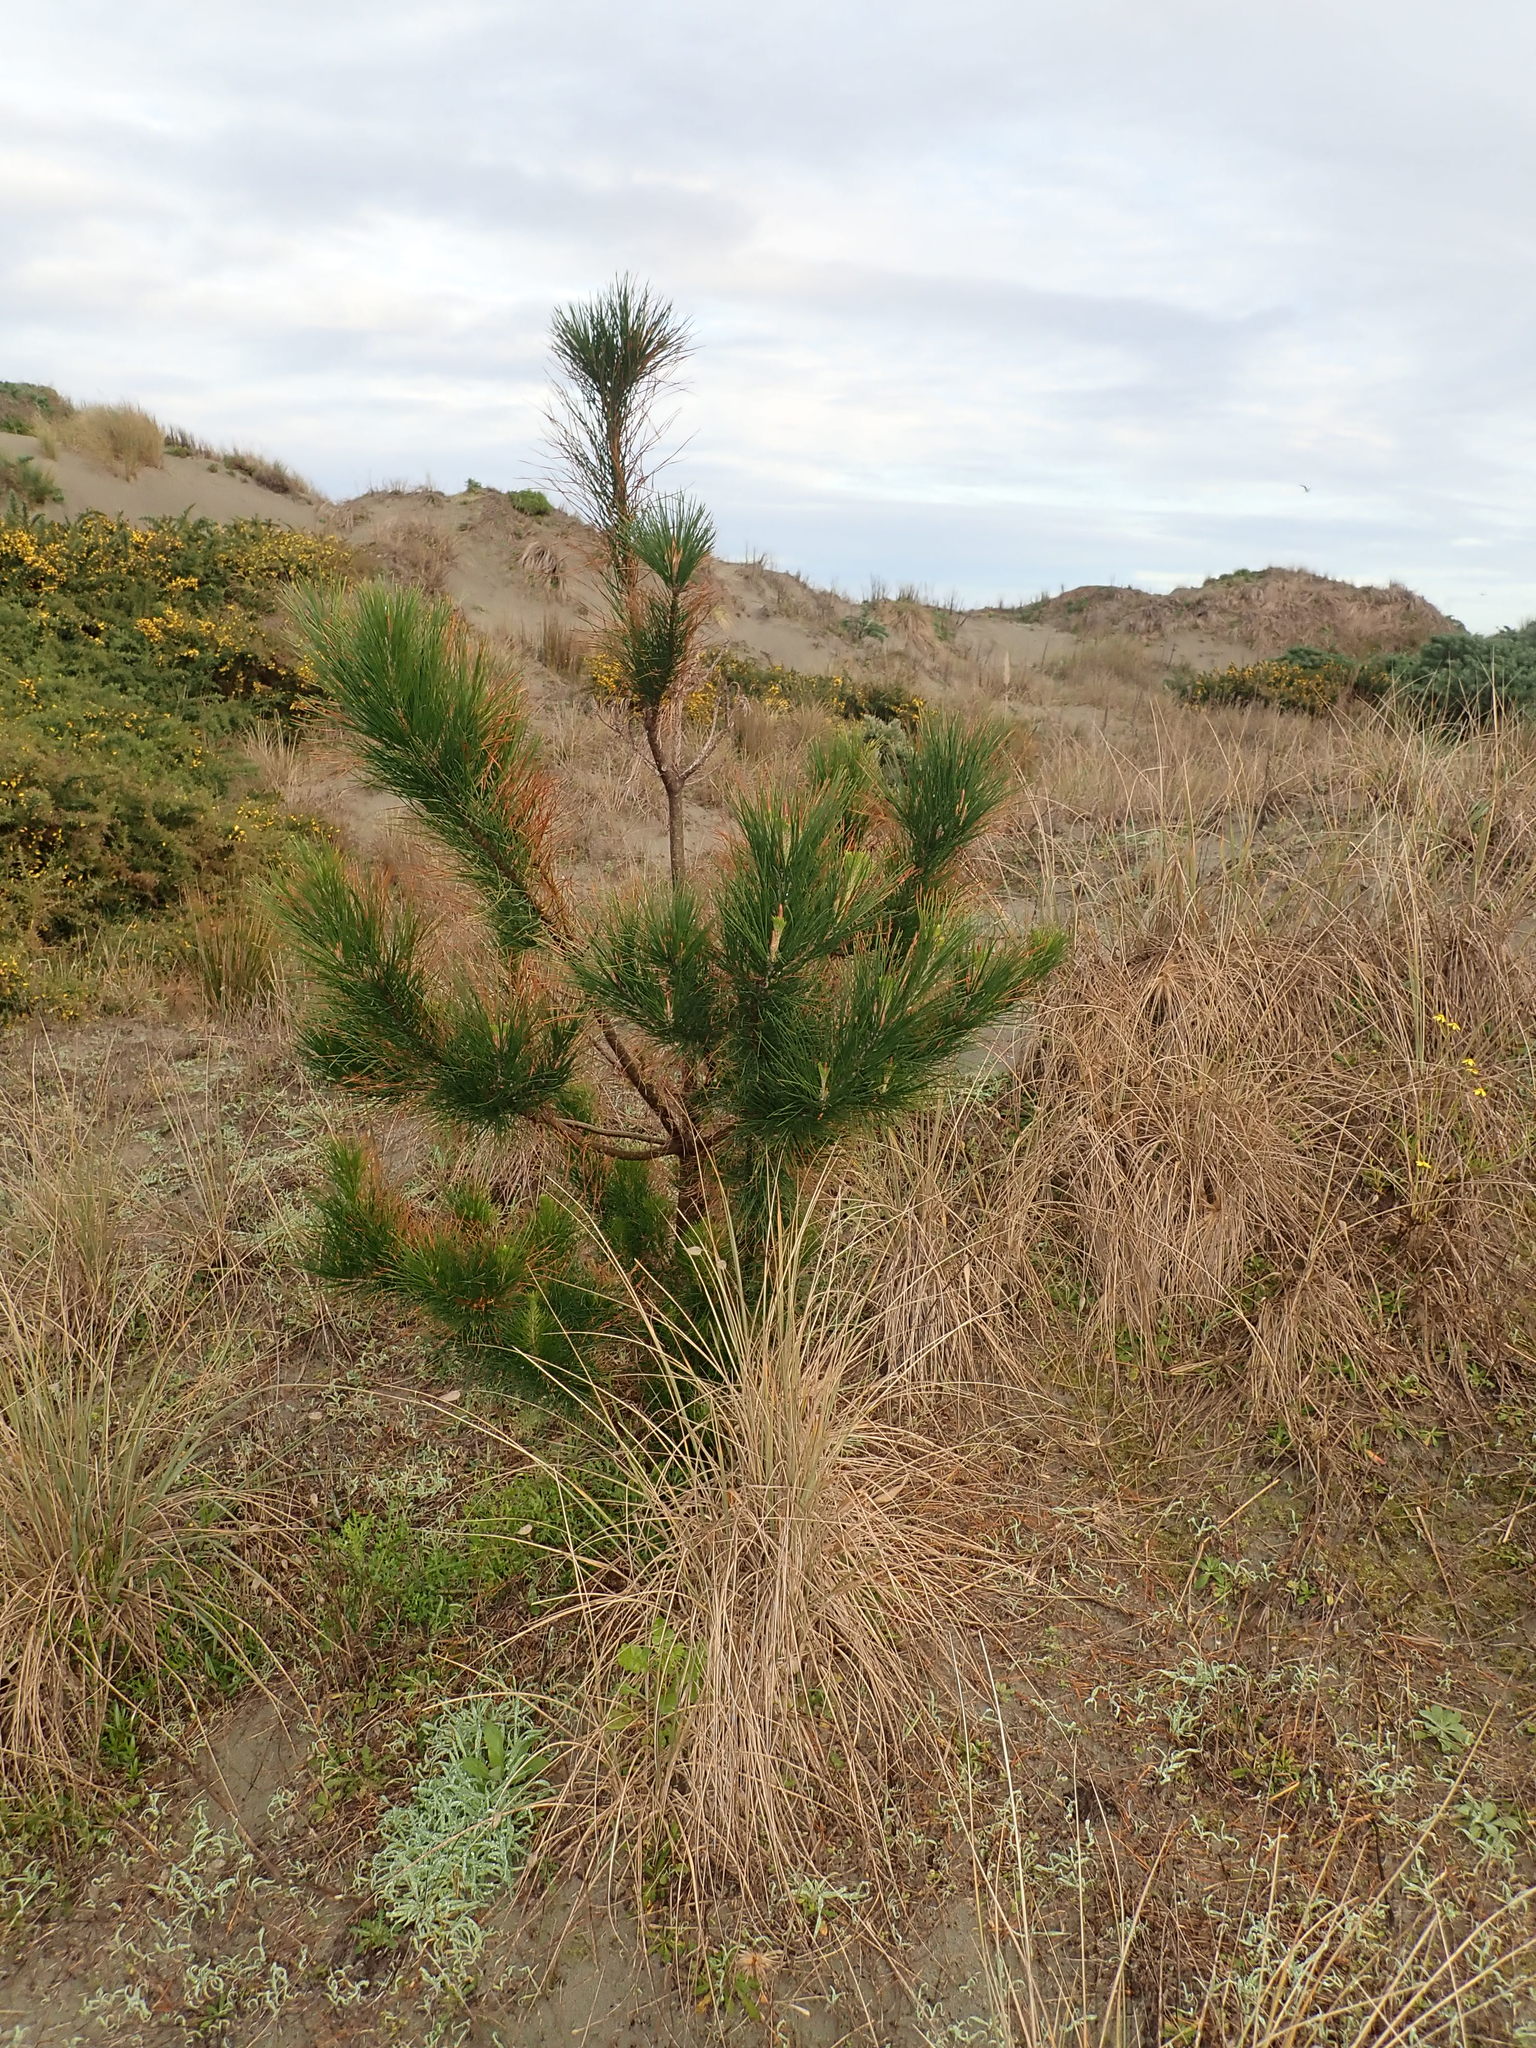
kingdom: Plantae
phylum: Tracheophyta
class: Pinopsida
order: Pinales
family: Pinaceae
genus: Pinus
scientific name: Pinus radiata
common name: Monterey pine
